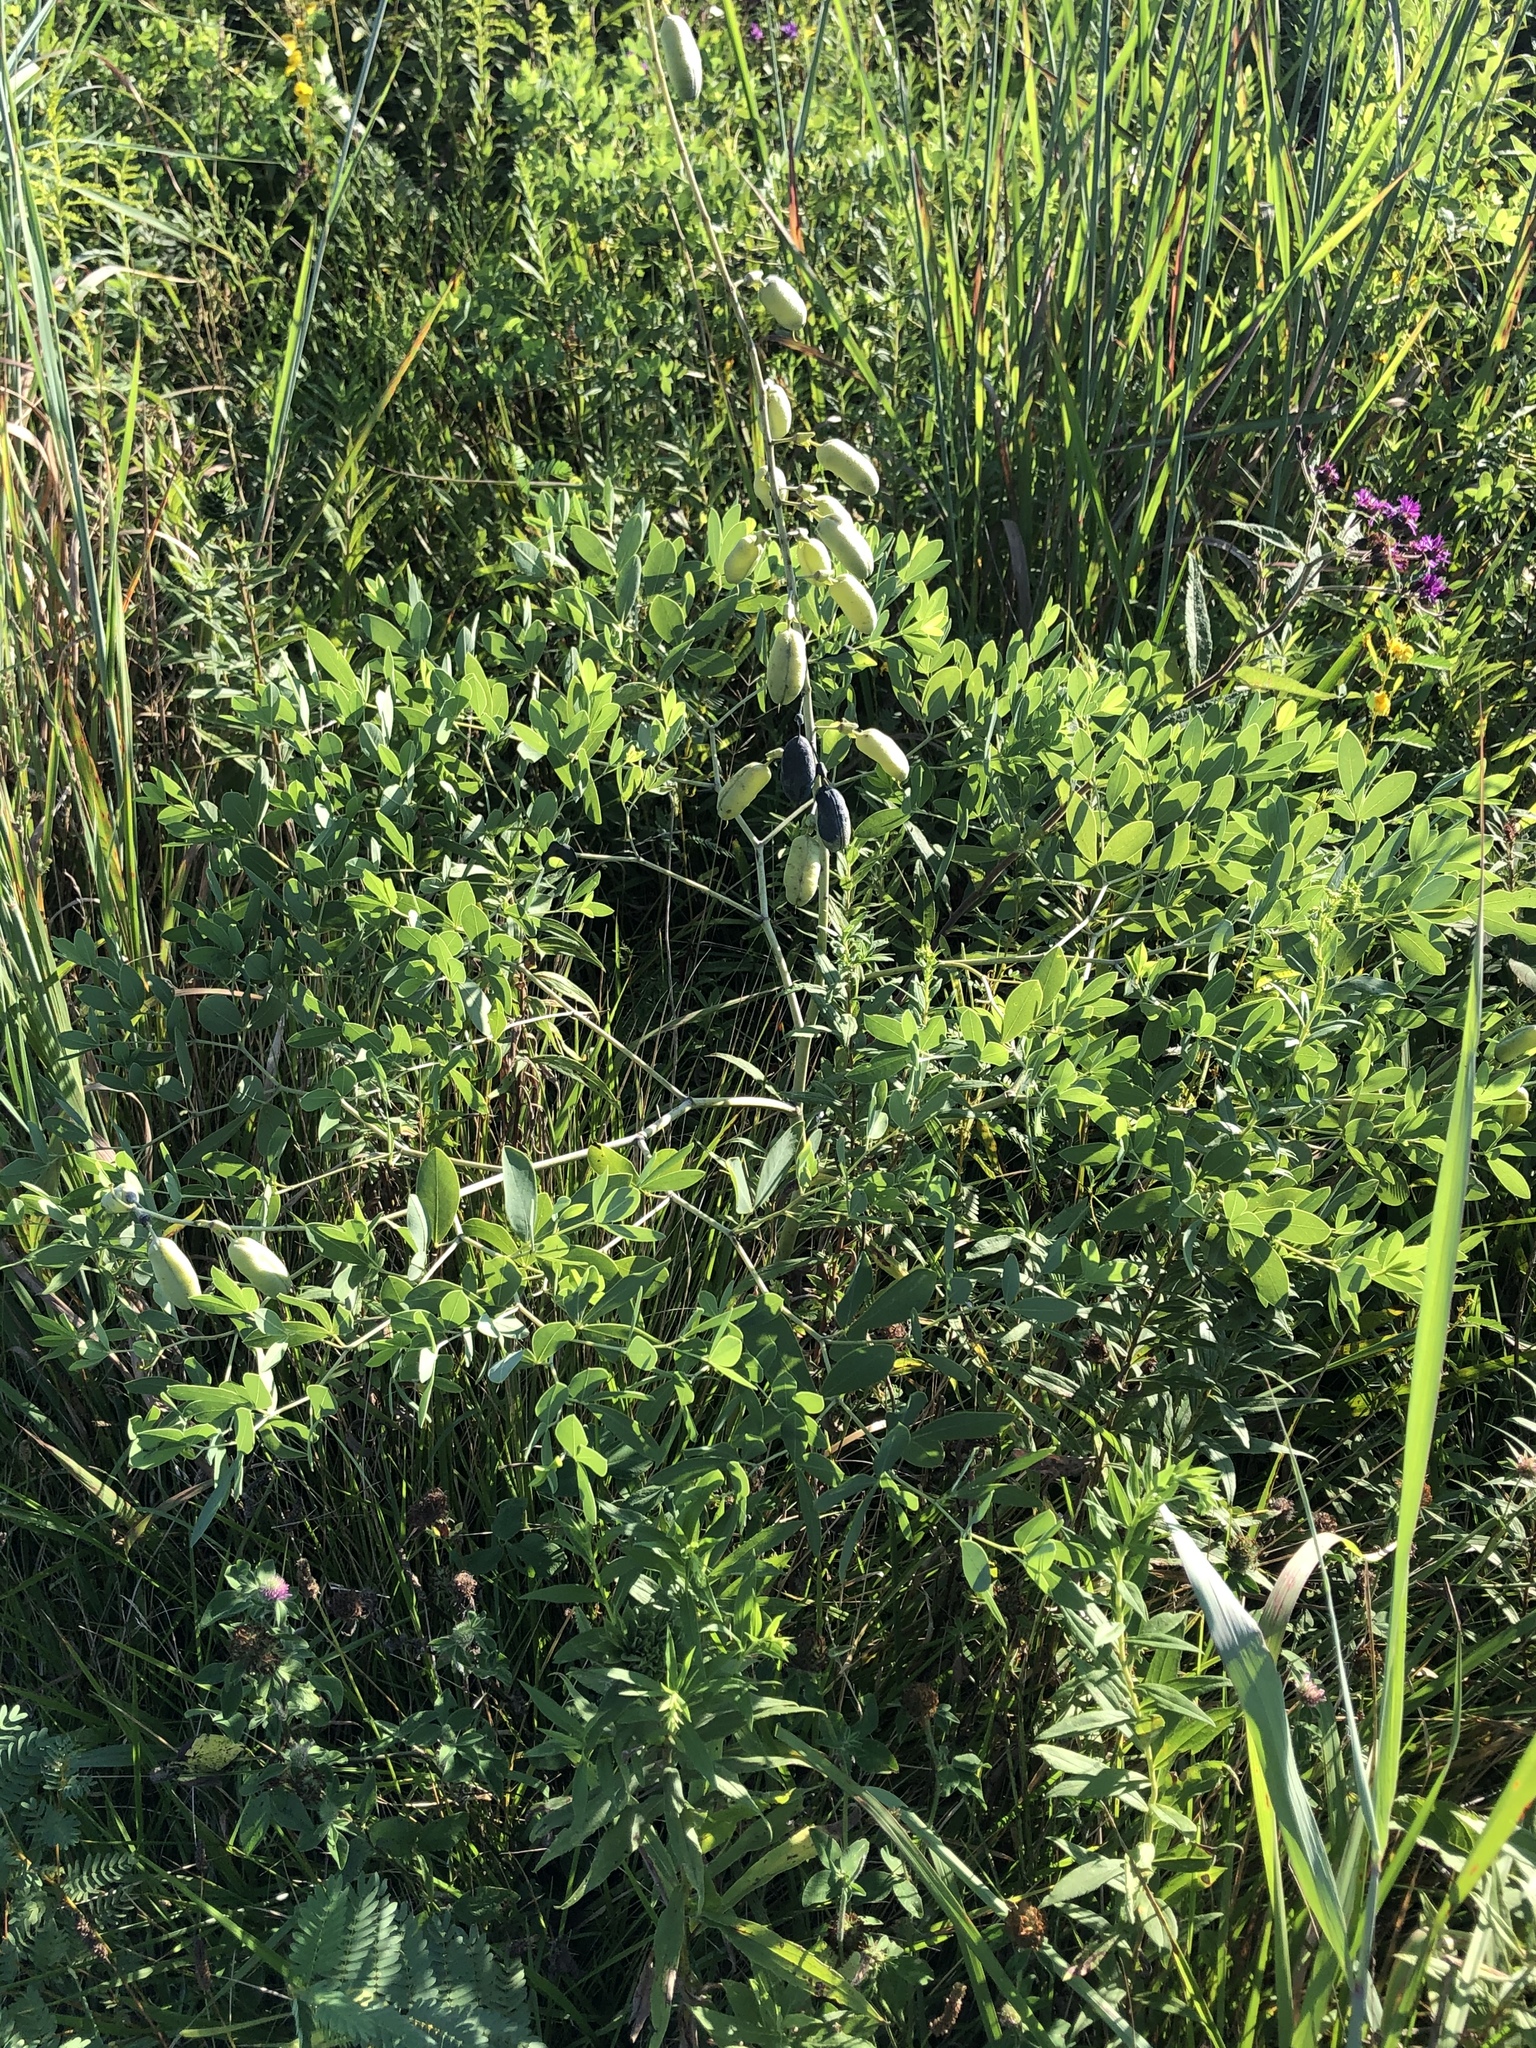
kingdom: Plantae
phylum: Tracheophyta
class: Magnoliopsida
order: Fabales
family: Fabaceae
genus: Baptisia
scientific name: Baptisia alba
